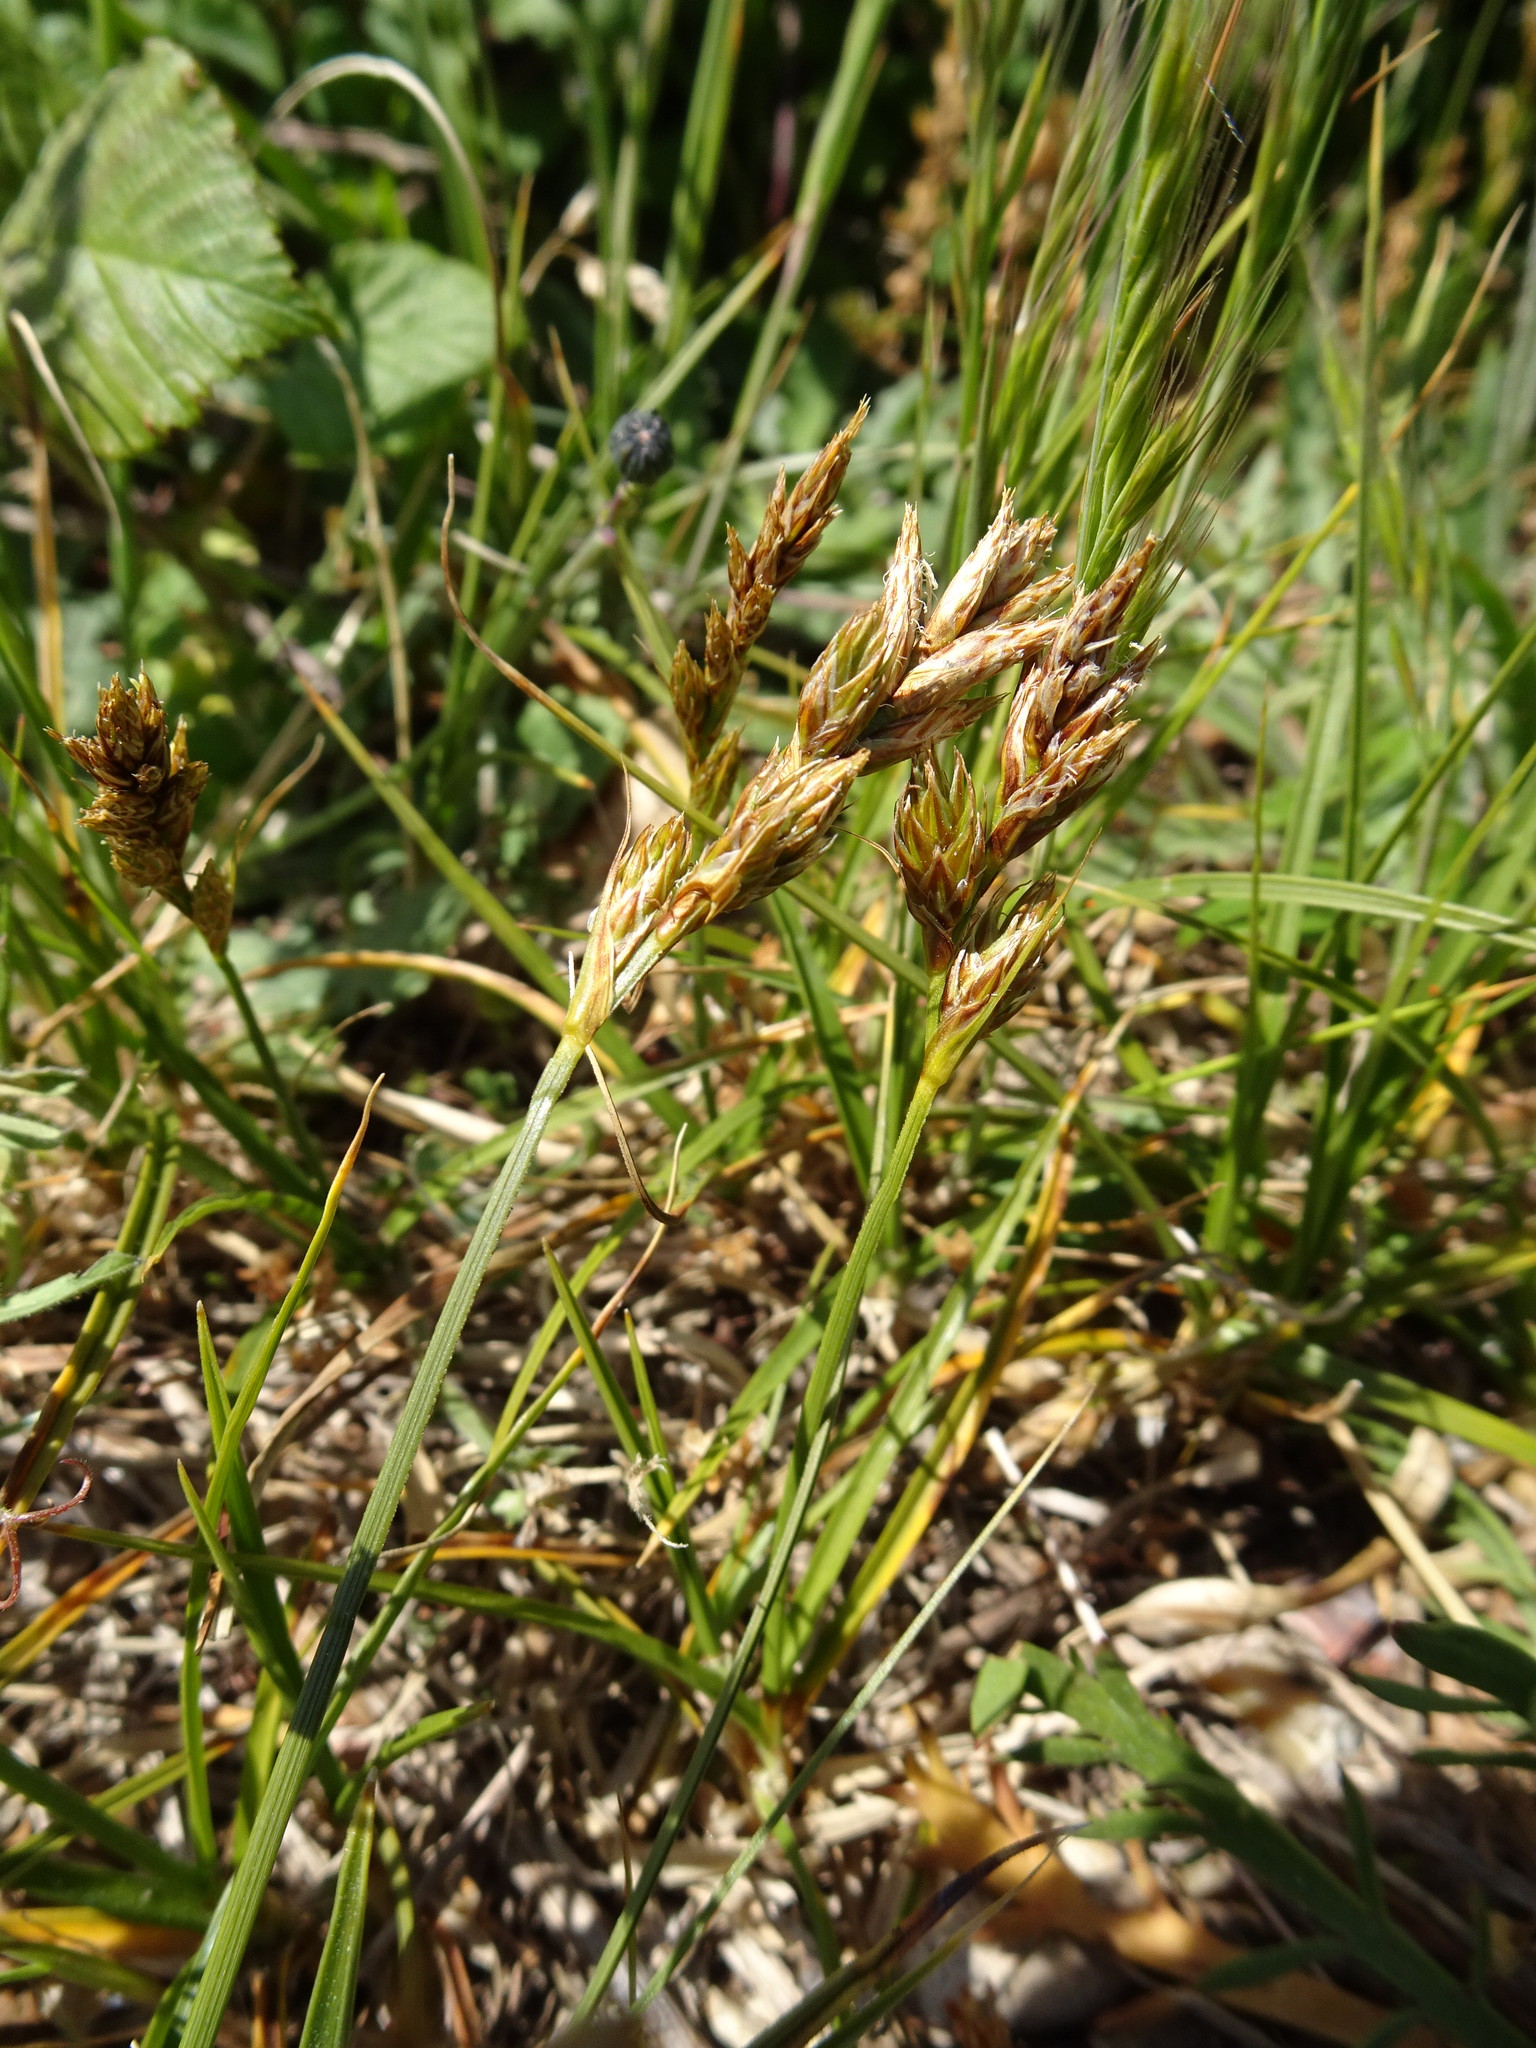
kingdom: Plantae
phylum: Tracheophyta
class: Liliopsida
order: Poales
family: Cyperaceae
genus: Carex
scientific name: Carex arenaria
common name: Sand sedge
